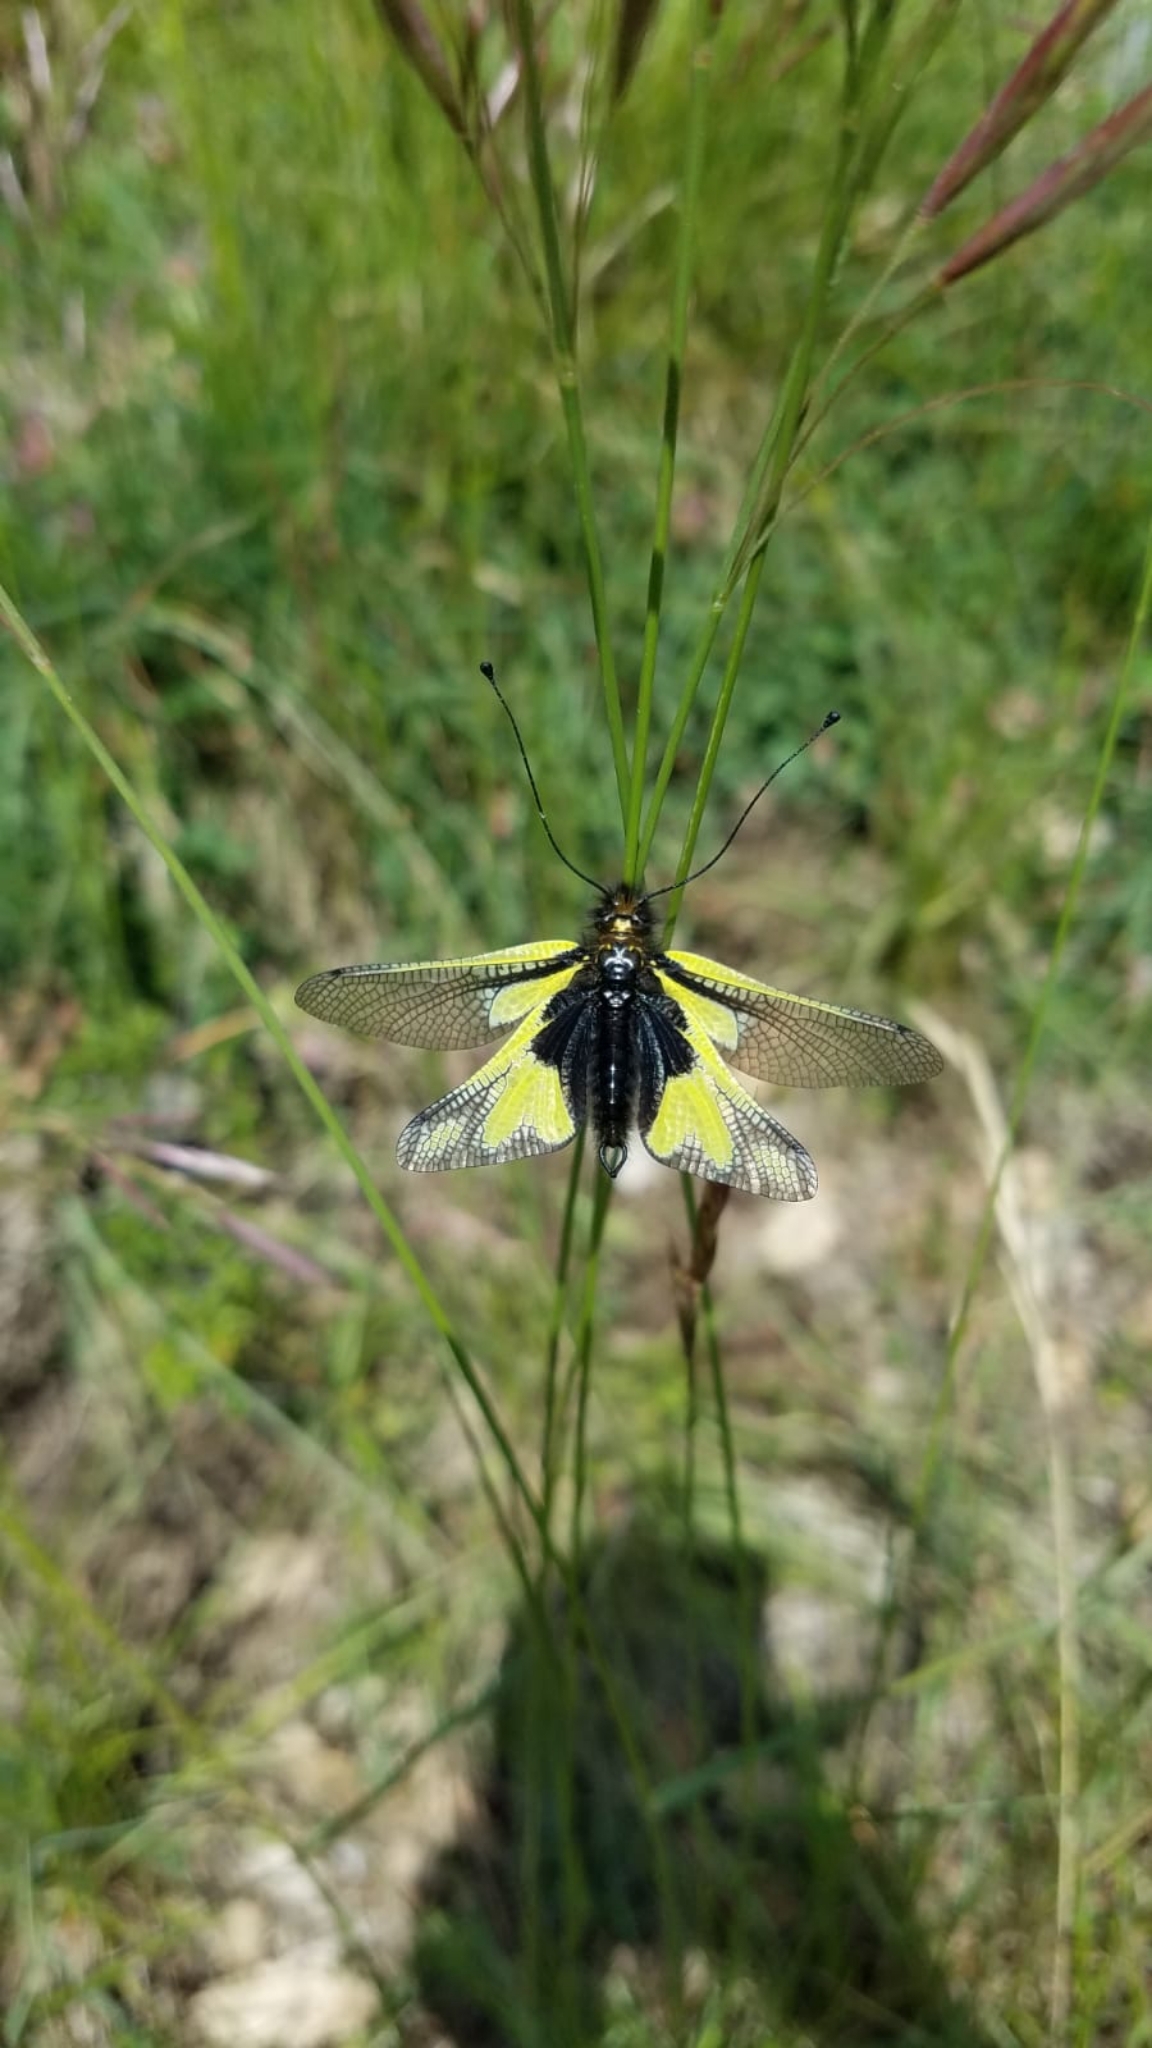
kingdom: Animalia
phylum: Arthropoda
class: Insecta
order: Neuroptera
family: Ascalaphidae
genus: Libelloides
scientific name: Libelloides coccajus
